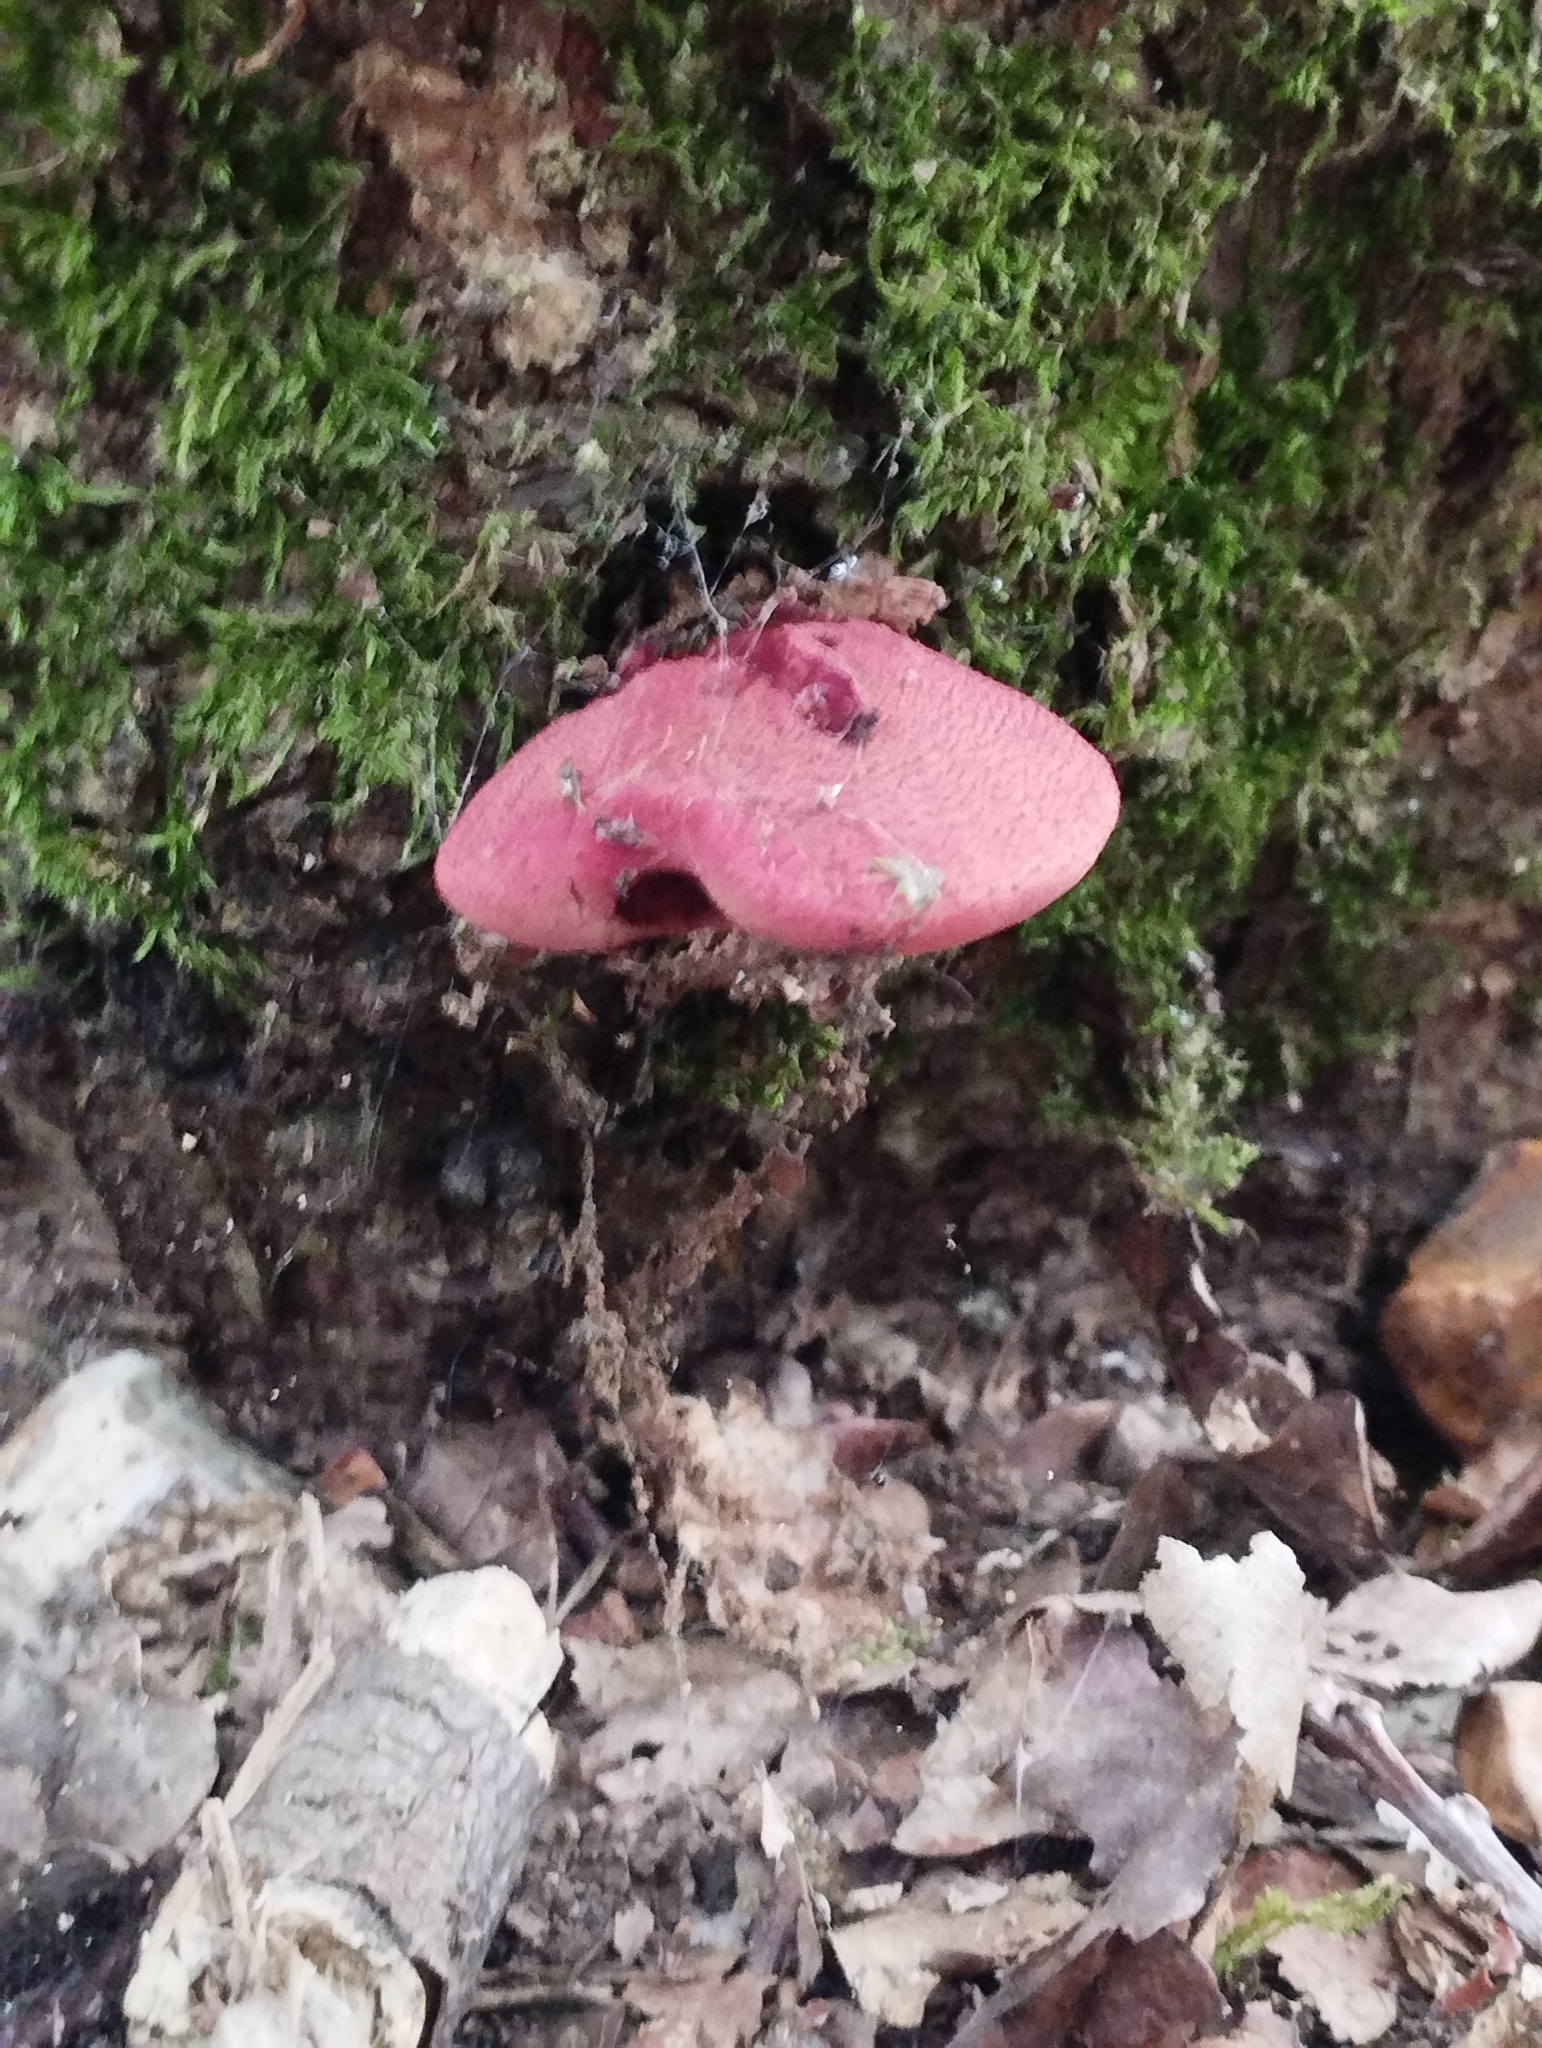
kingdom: Fungi
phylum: Basidiomycota
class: Agaricomycetes
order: Agaricales
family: Fistulinaceae
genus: Fistulina
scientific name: Fistulina hepatica
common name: Beef-steak fungus
